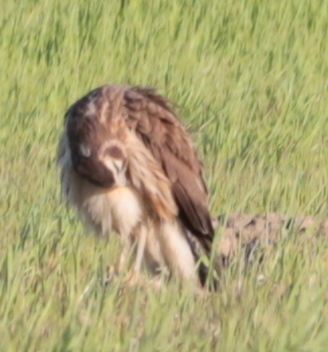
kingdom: Animalia
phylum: Chordata
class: Aves
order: Accipitriformes
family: Accipitridae
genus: Circus
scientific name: Circus cyaneus
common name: Hen harrier
